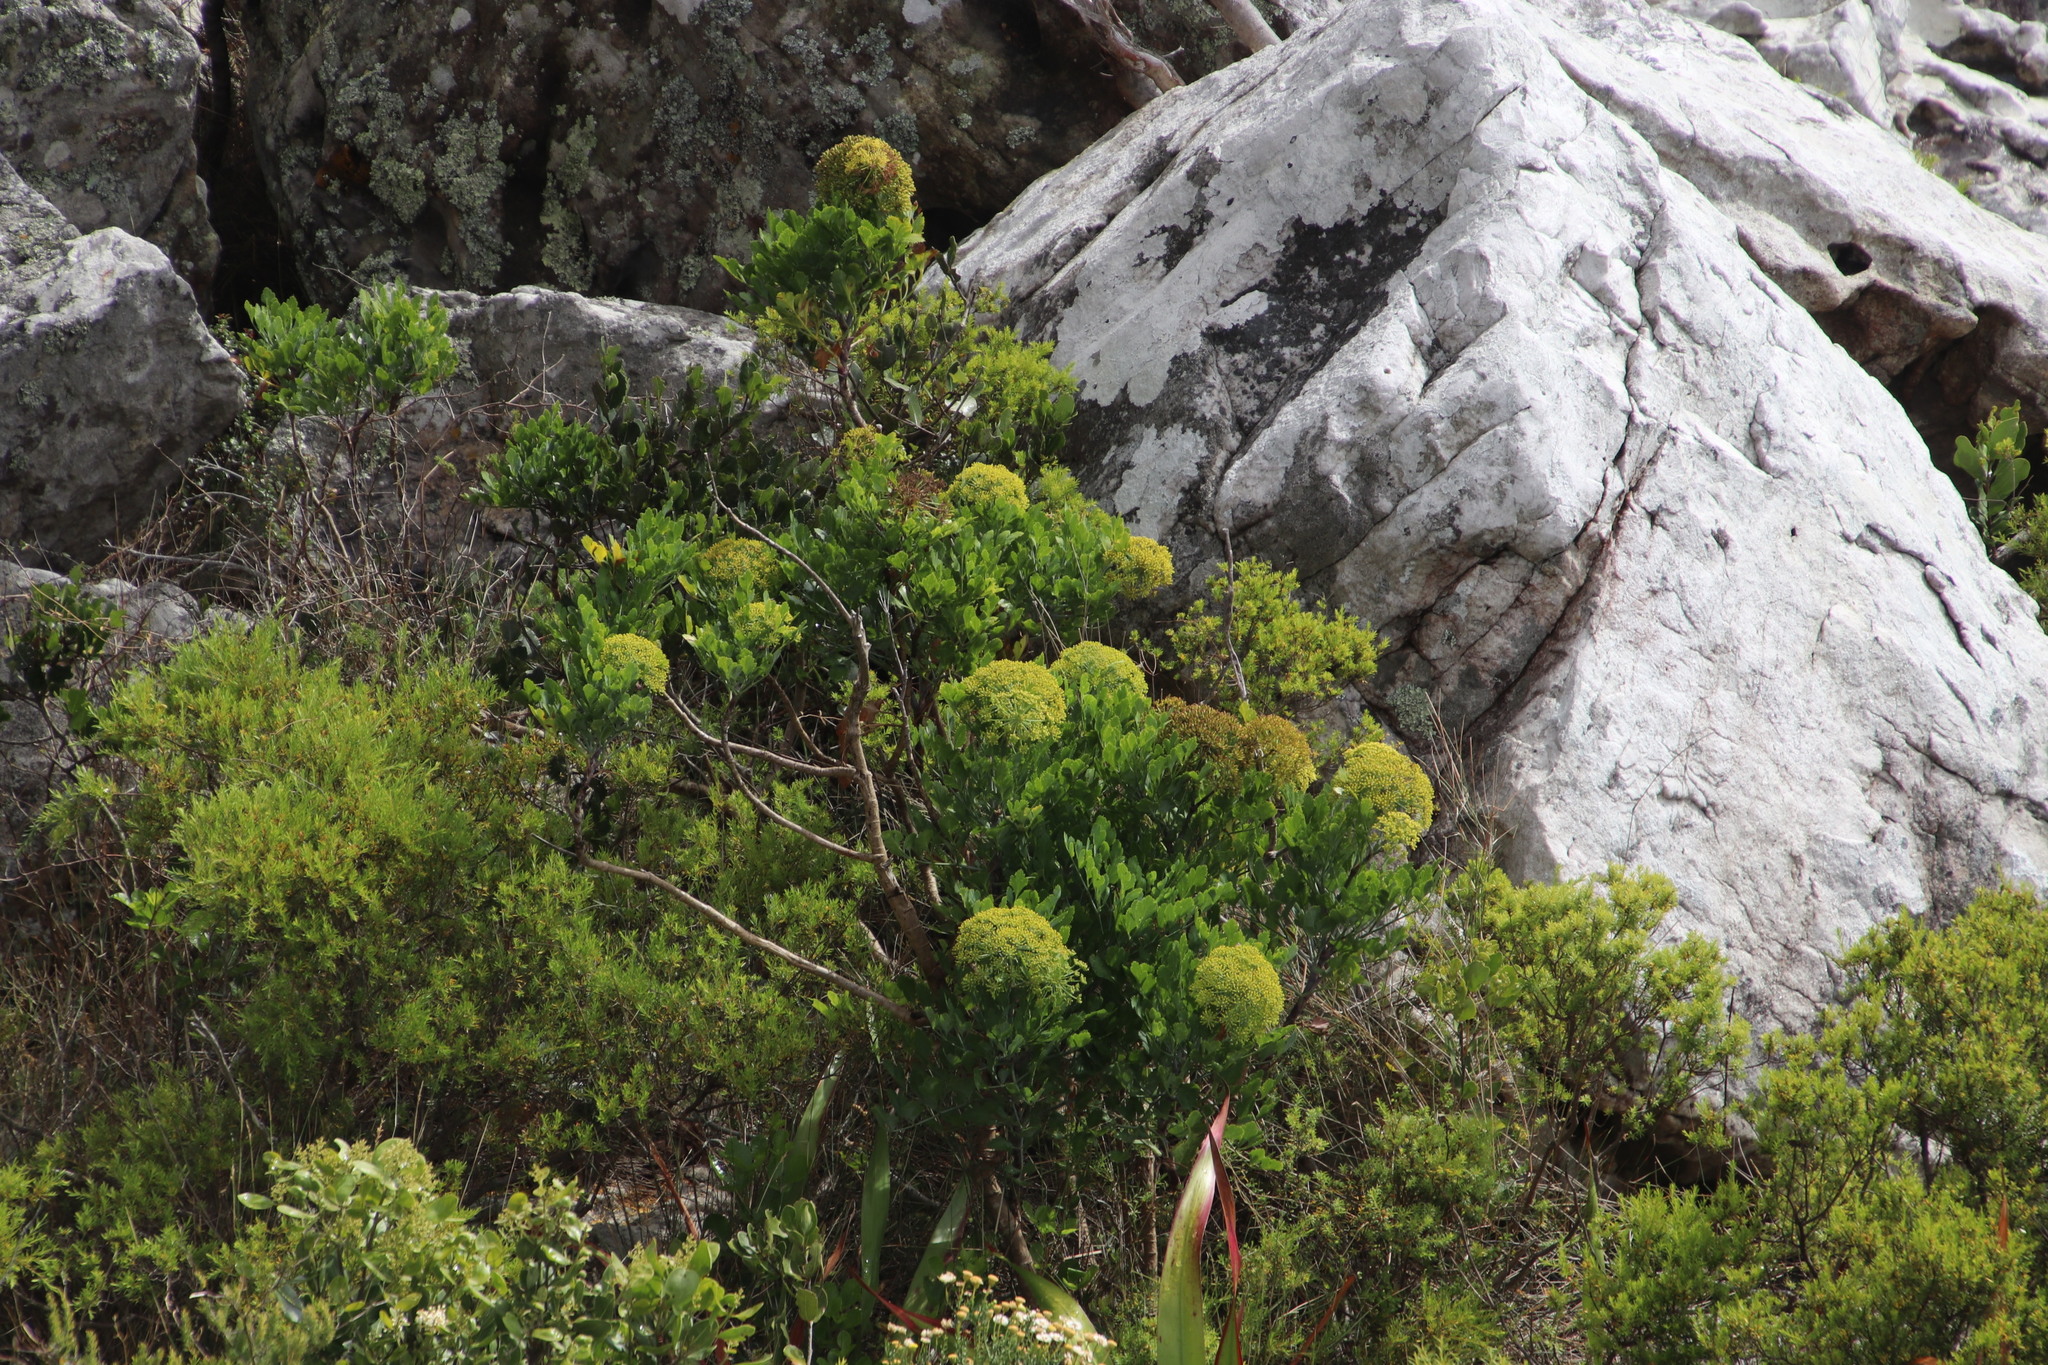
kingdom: Plantae
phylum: Tracheophyta
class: Magnoliopsida
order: Apiales
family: Apiaceae
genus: Notobubon
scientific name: Notobubon galbanum
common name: Blisterbush
